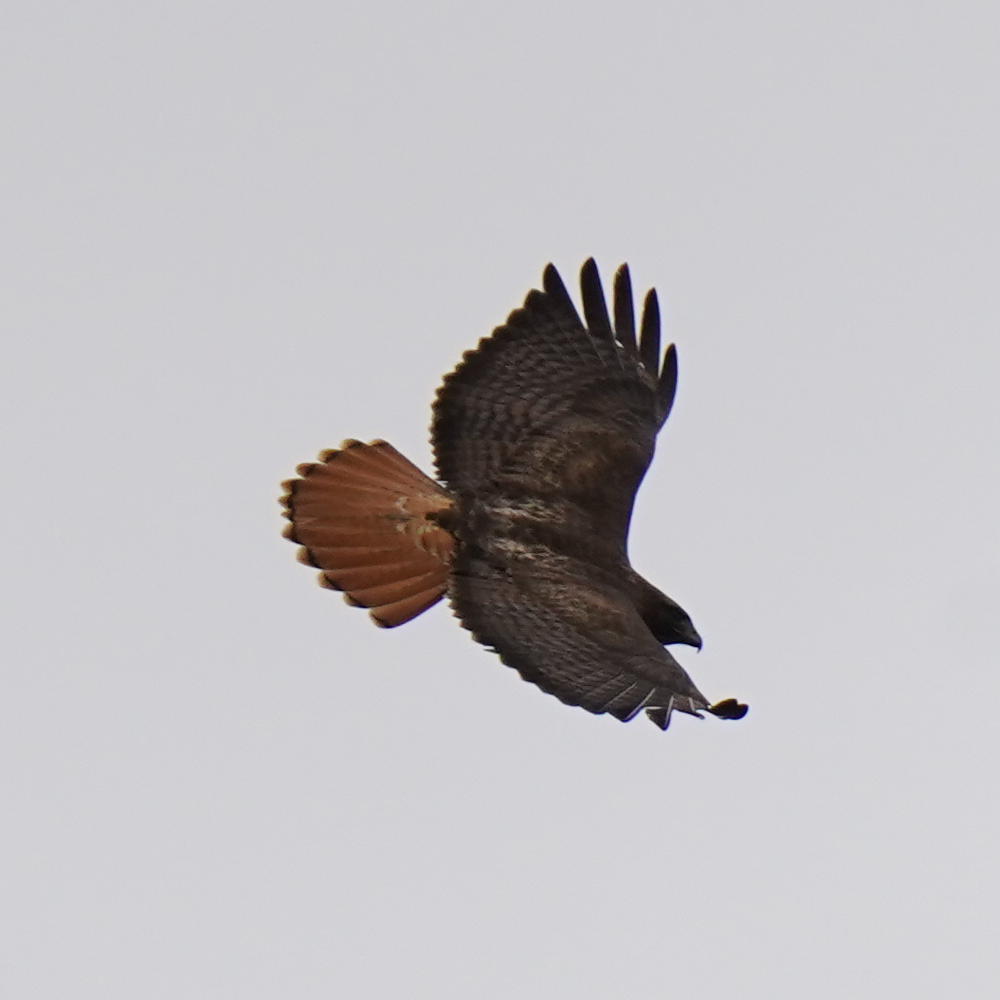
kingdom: Animalia
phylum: Chordata
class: Aves
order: Accipitriformes
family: Accipitridae
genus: Buteo
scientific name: Buteo jamaicensis
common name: Red-tailed hawk
